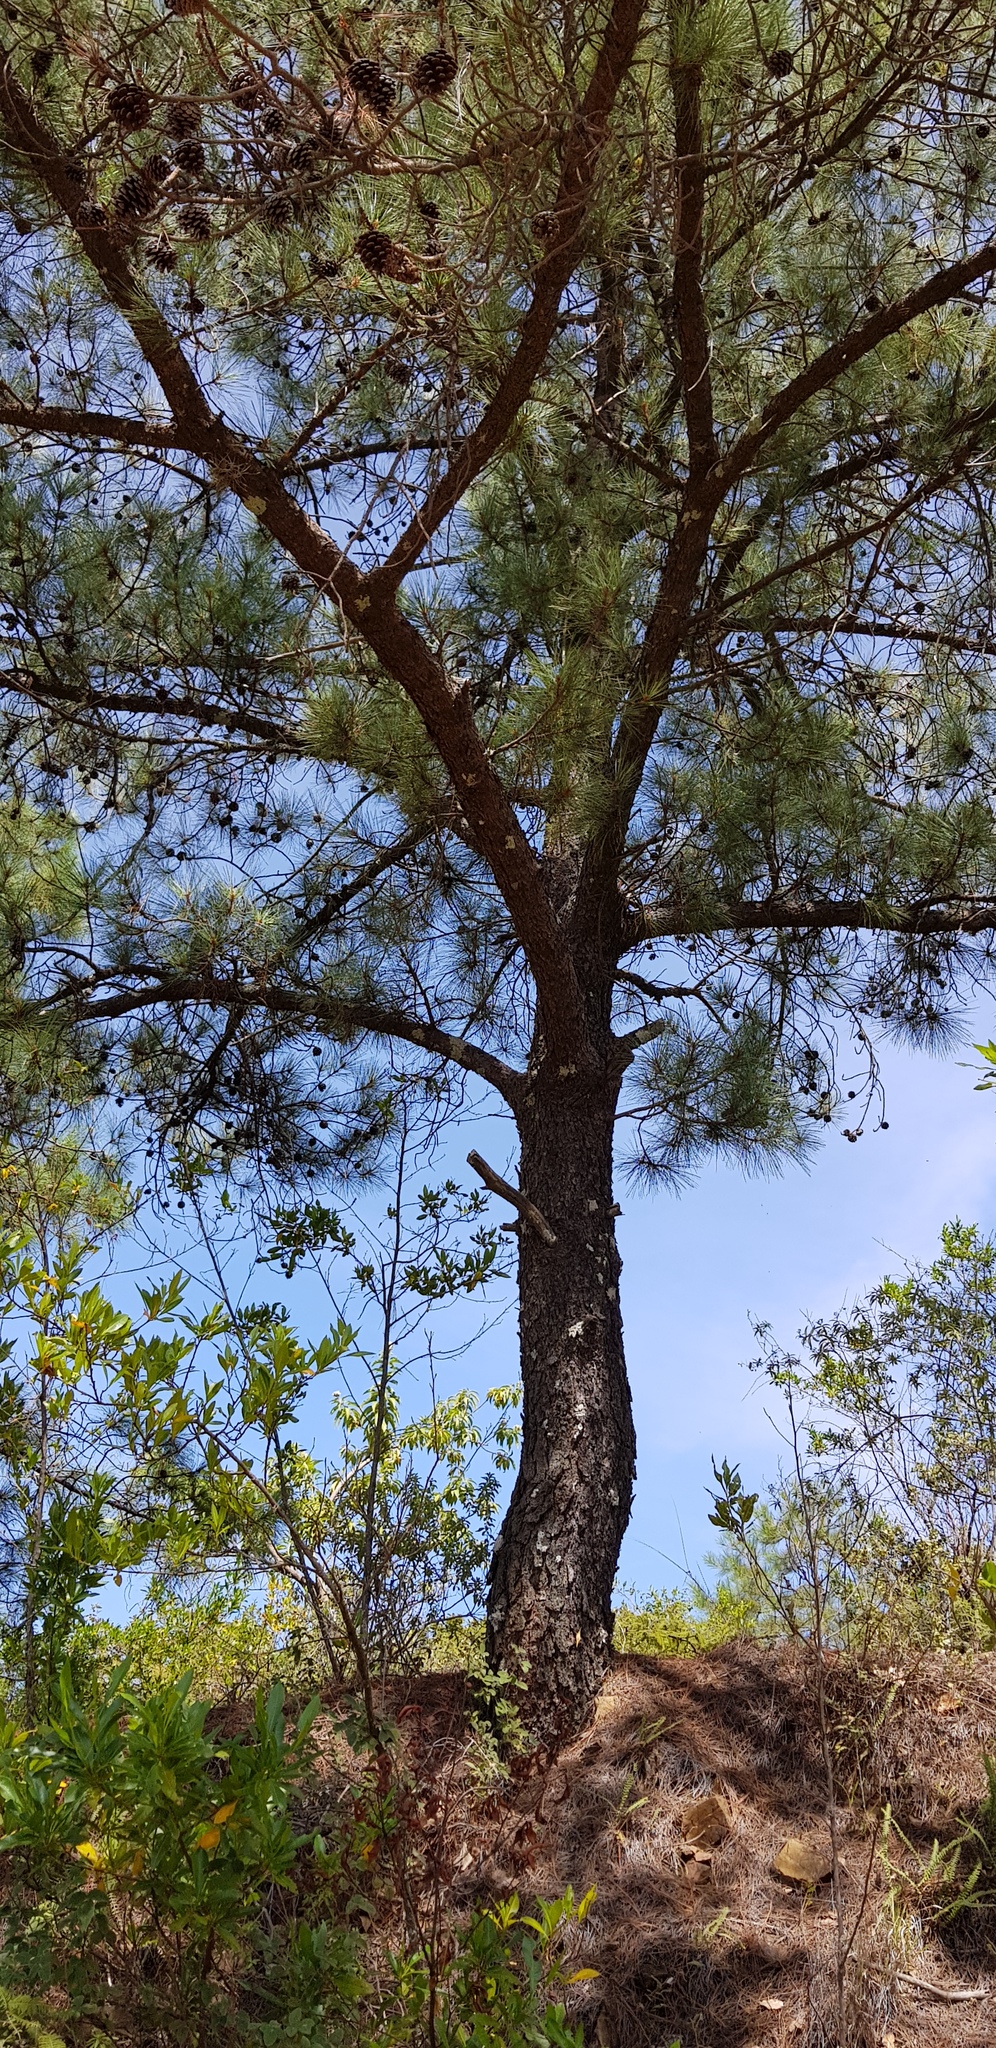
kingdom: Plantae
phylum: Tracheophyta
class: Pinopsida
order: Pinales
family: Pinaceae
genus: Pinus
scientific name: Pinus teocote
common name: Aztec pine
